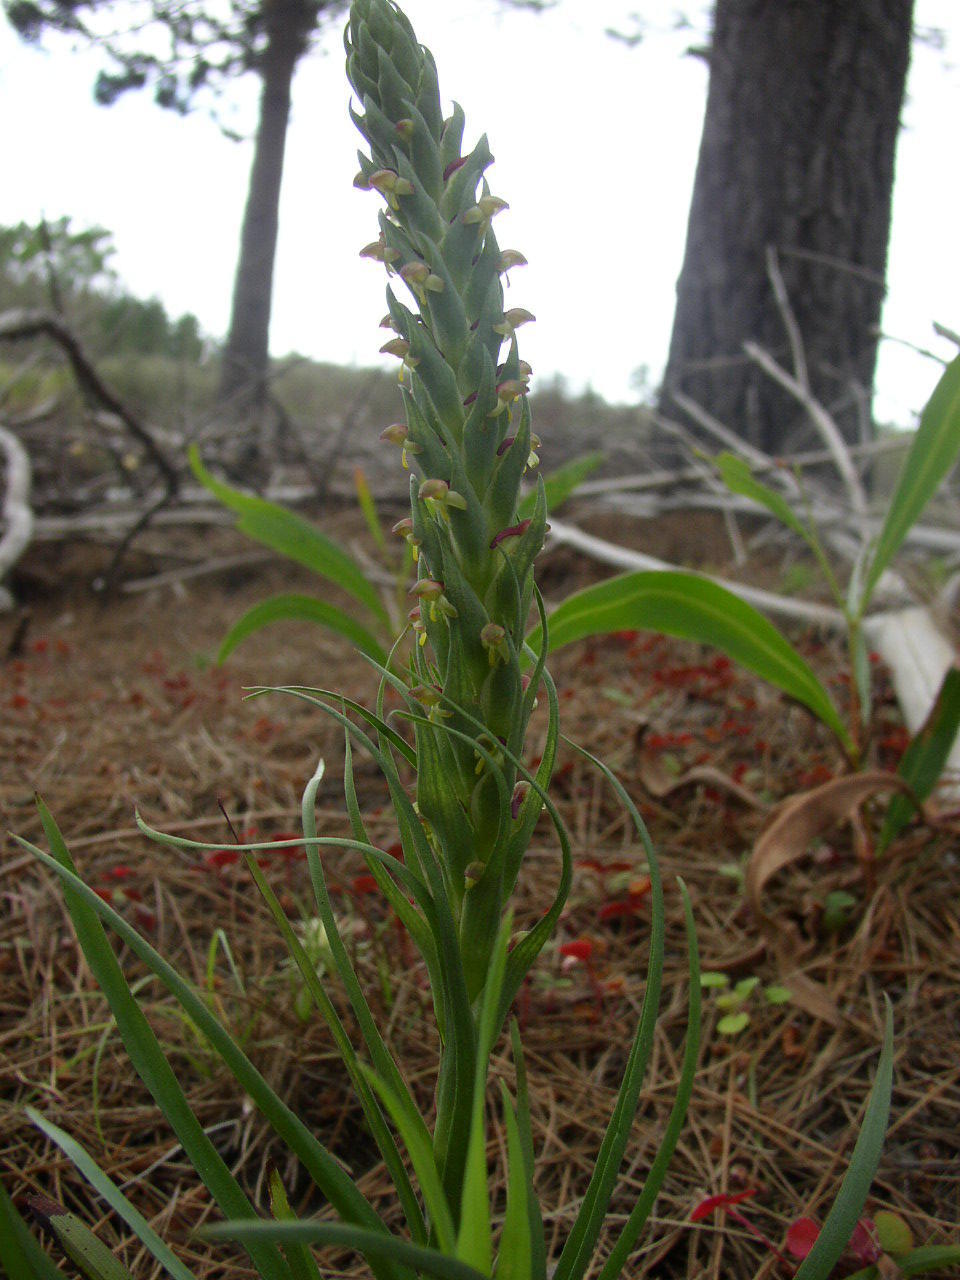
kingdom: Plantae
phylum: Tracheophyta
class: Liliopsida
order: Asparagales
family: Orchidaceae
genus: Disa
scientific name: Disa bracteata
